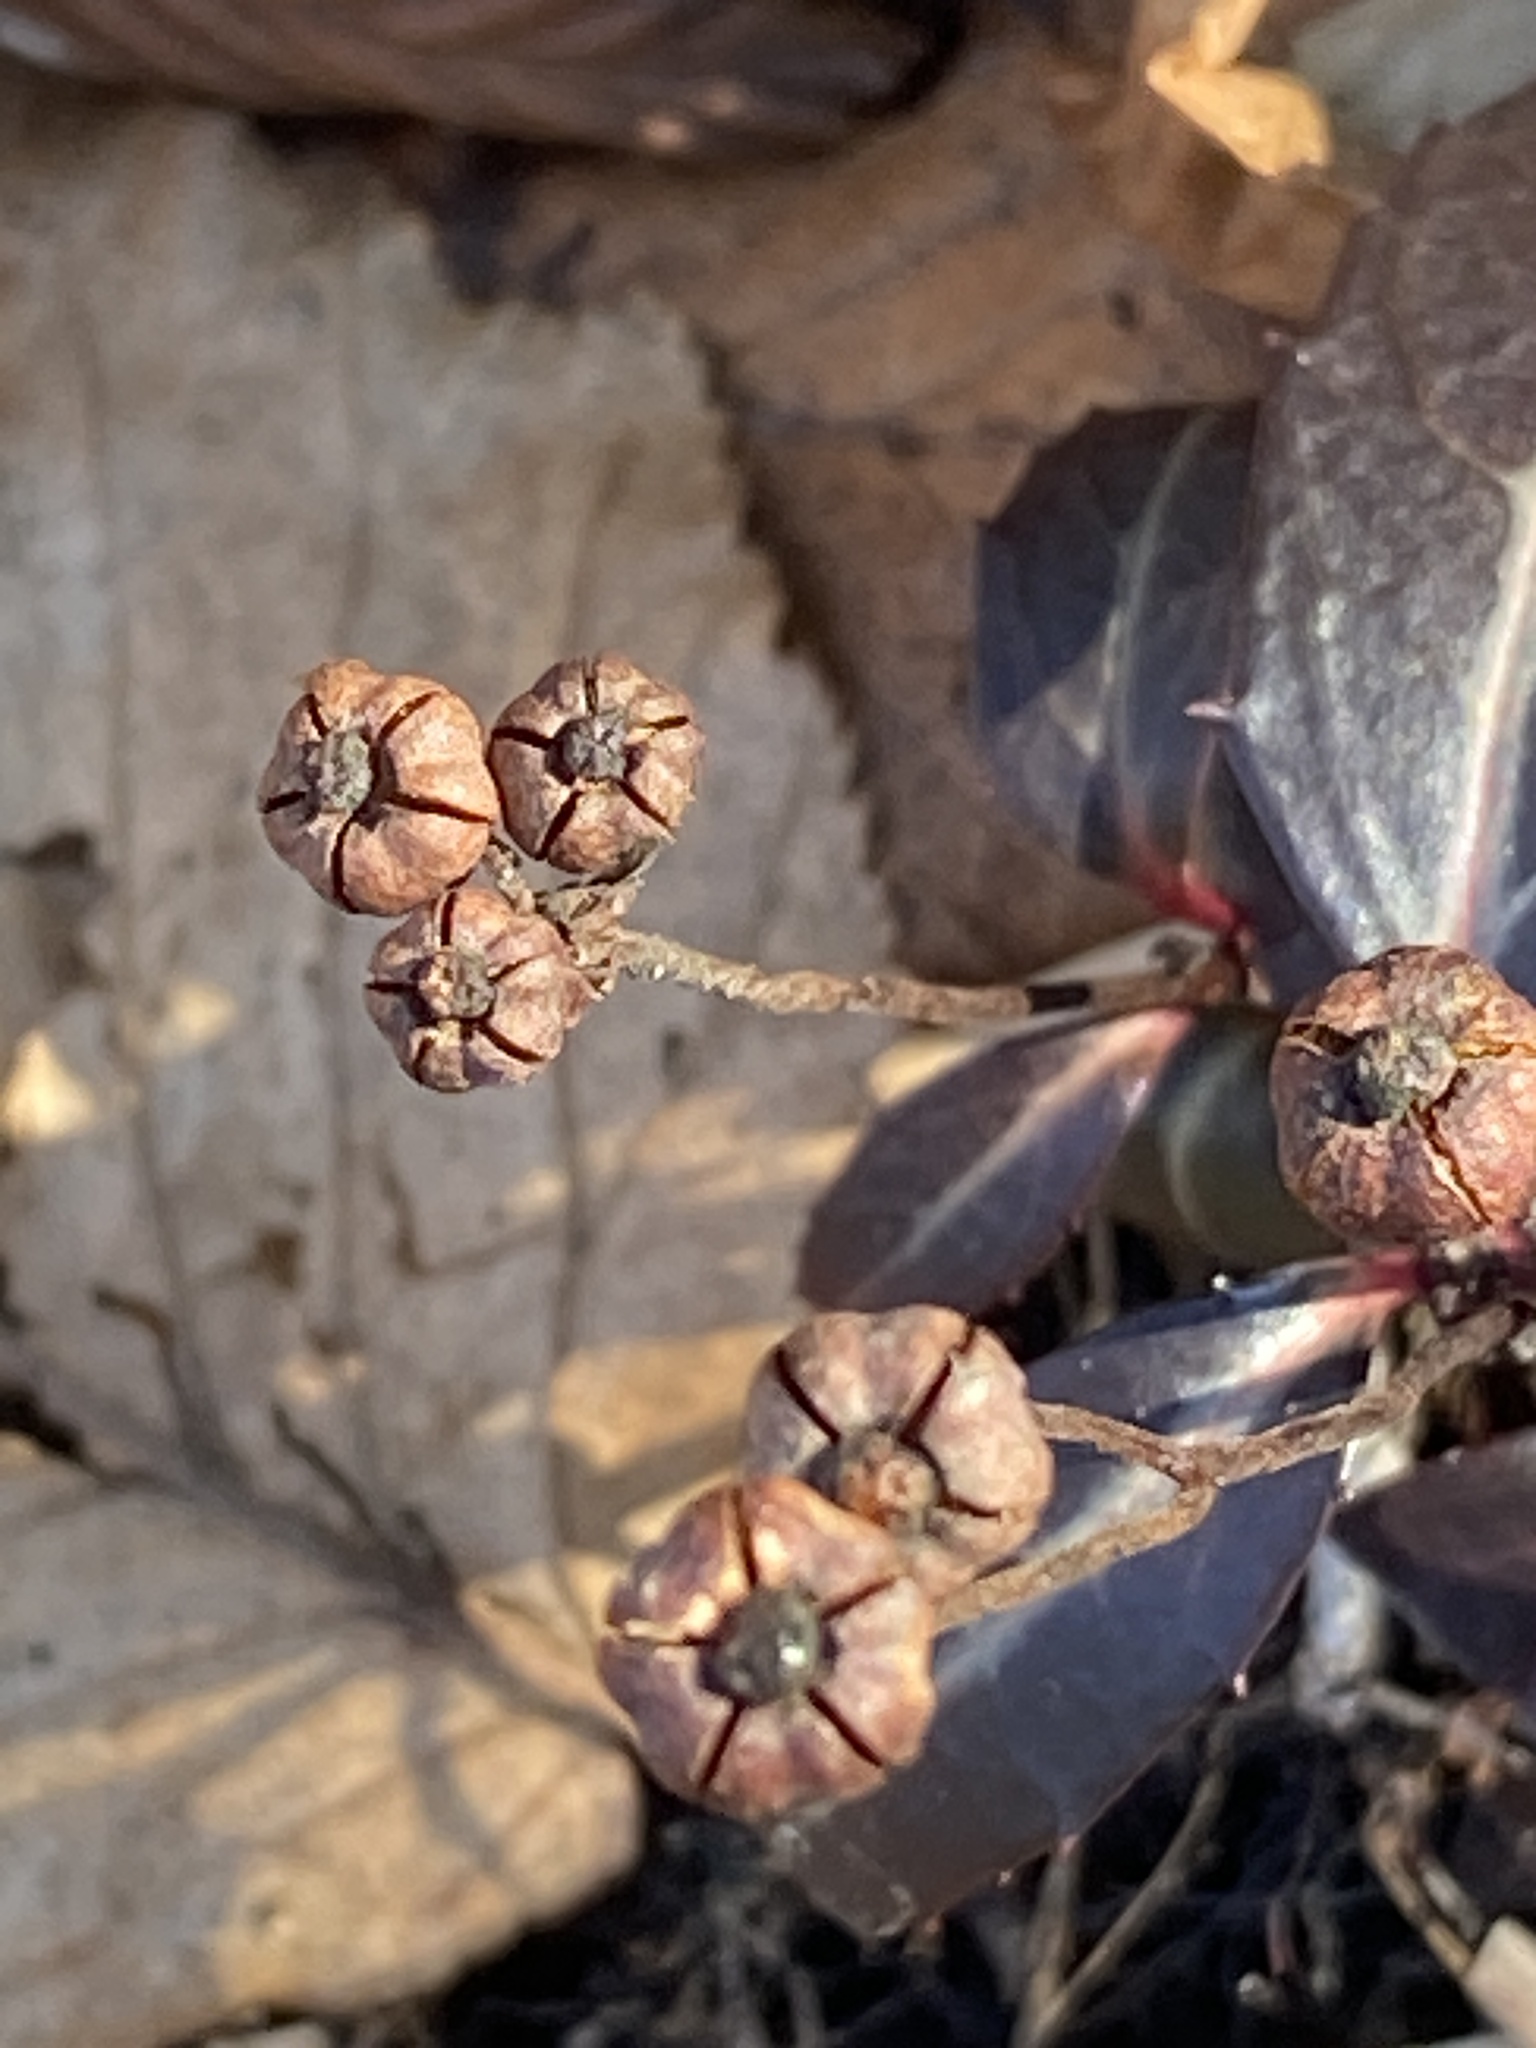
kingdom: Plantae
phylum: Tracheophyta
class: Magnoliopsida
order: Ericales
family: Ericaceae
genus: Chimaphila
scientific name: Chimaphila maculata
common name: Spotted pipsissewa
